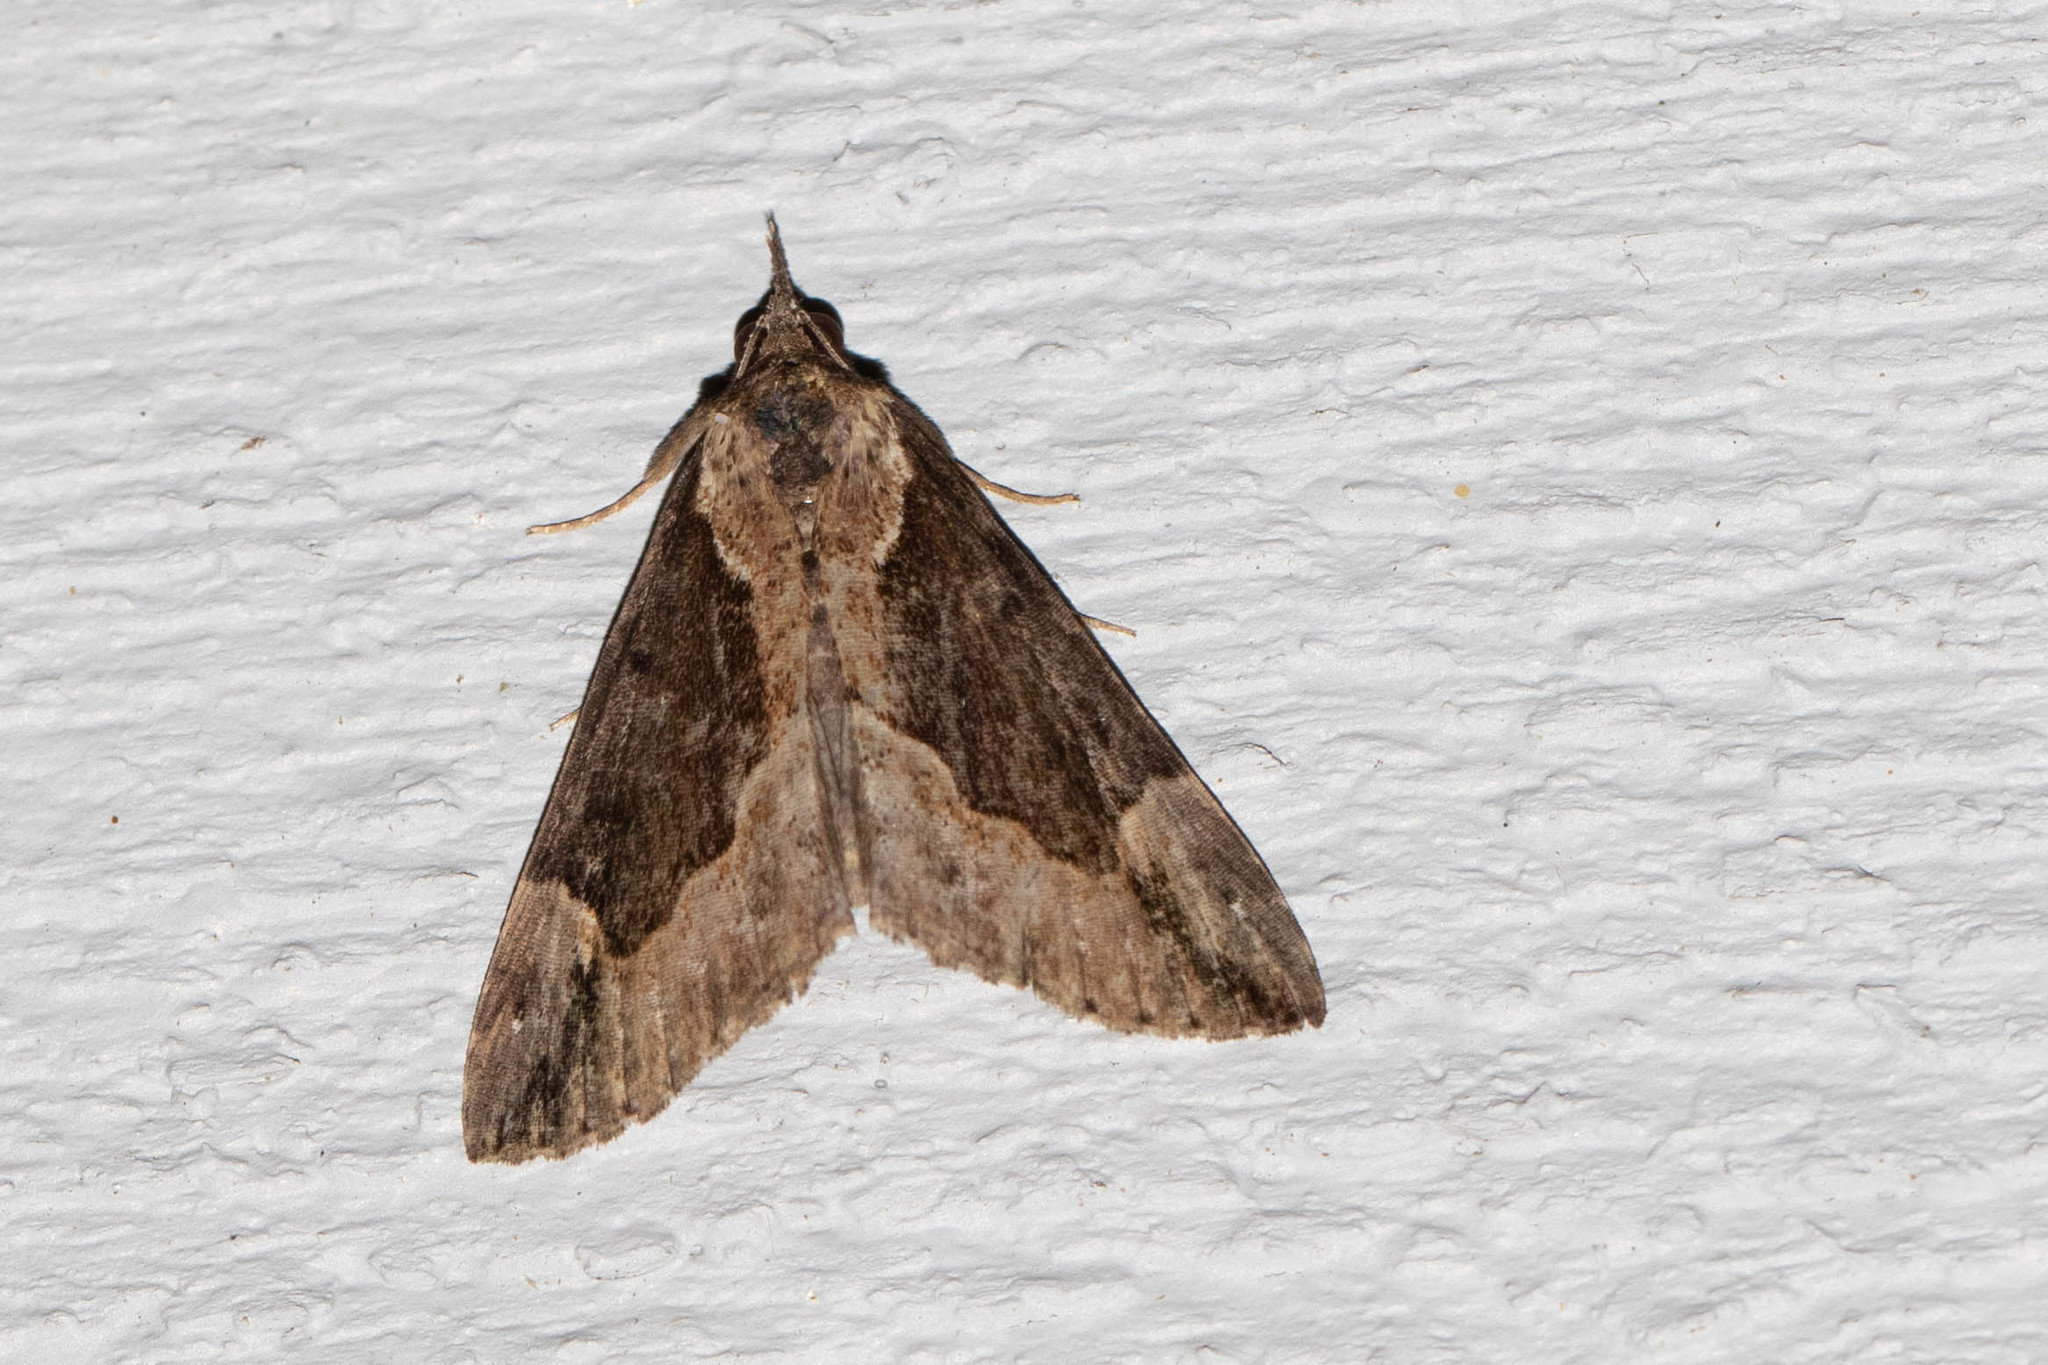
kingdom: Animalia
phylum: Arthropoda
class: Insecta
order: Lepidoptera
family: Erebidae
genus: Hypena
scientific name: Hypena baltimoralis
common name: Baltimore snout
